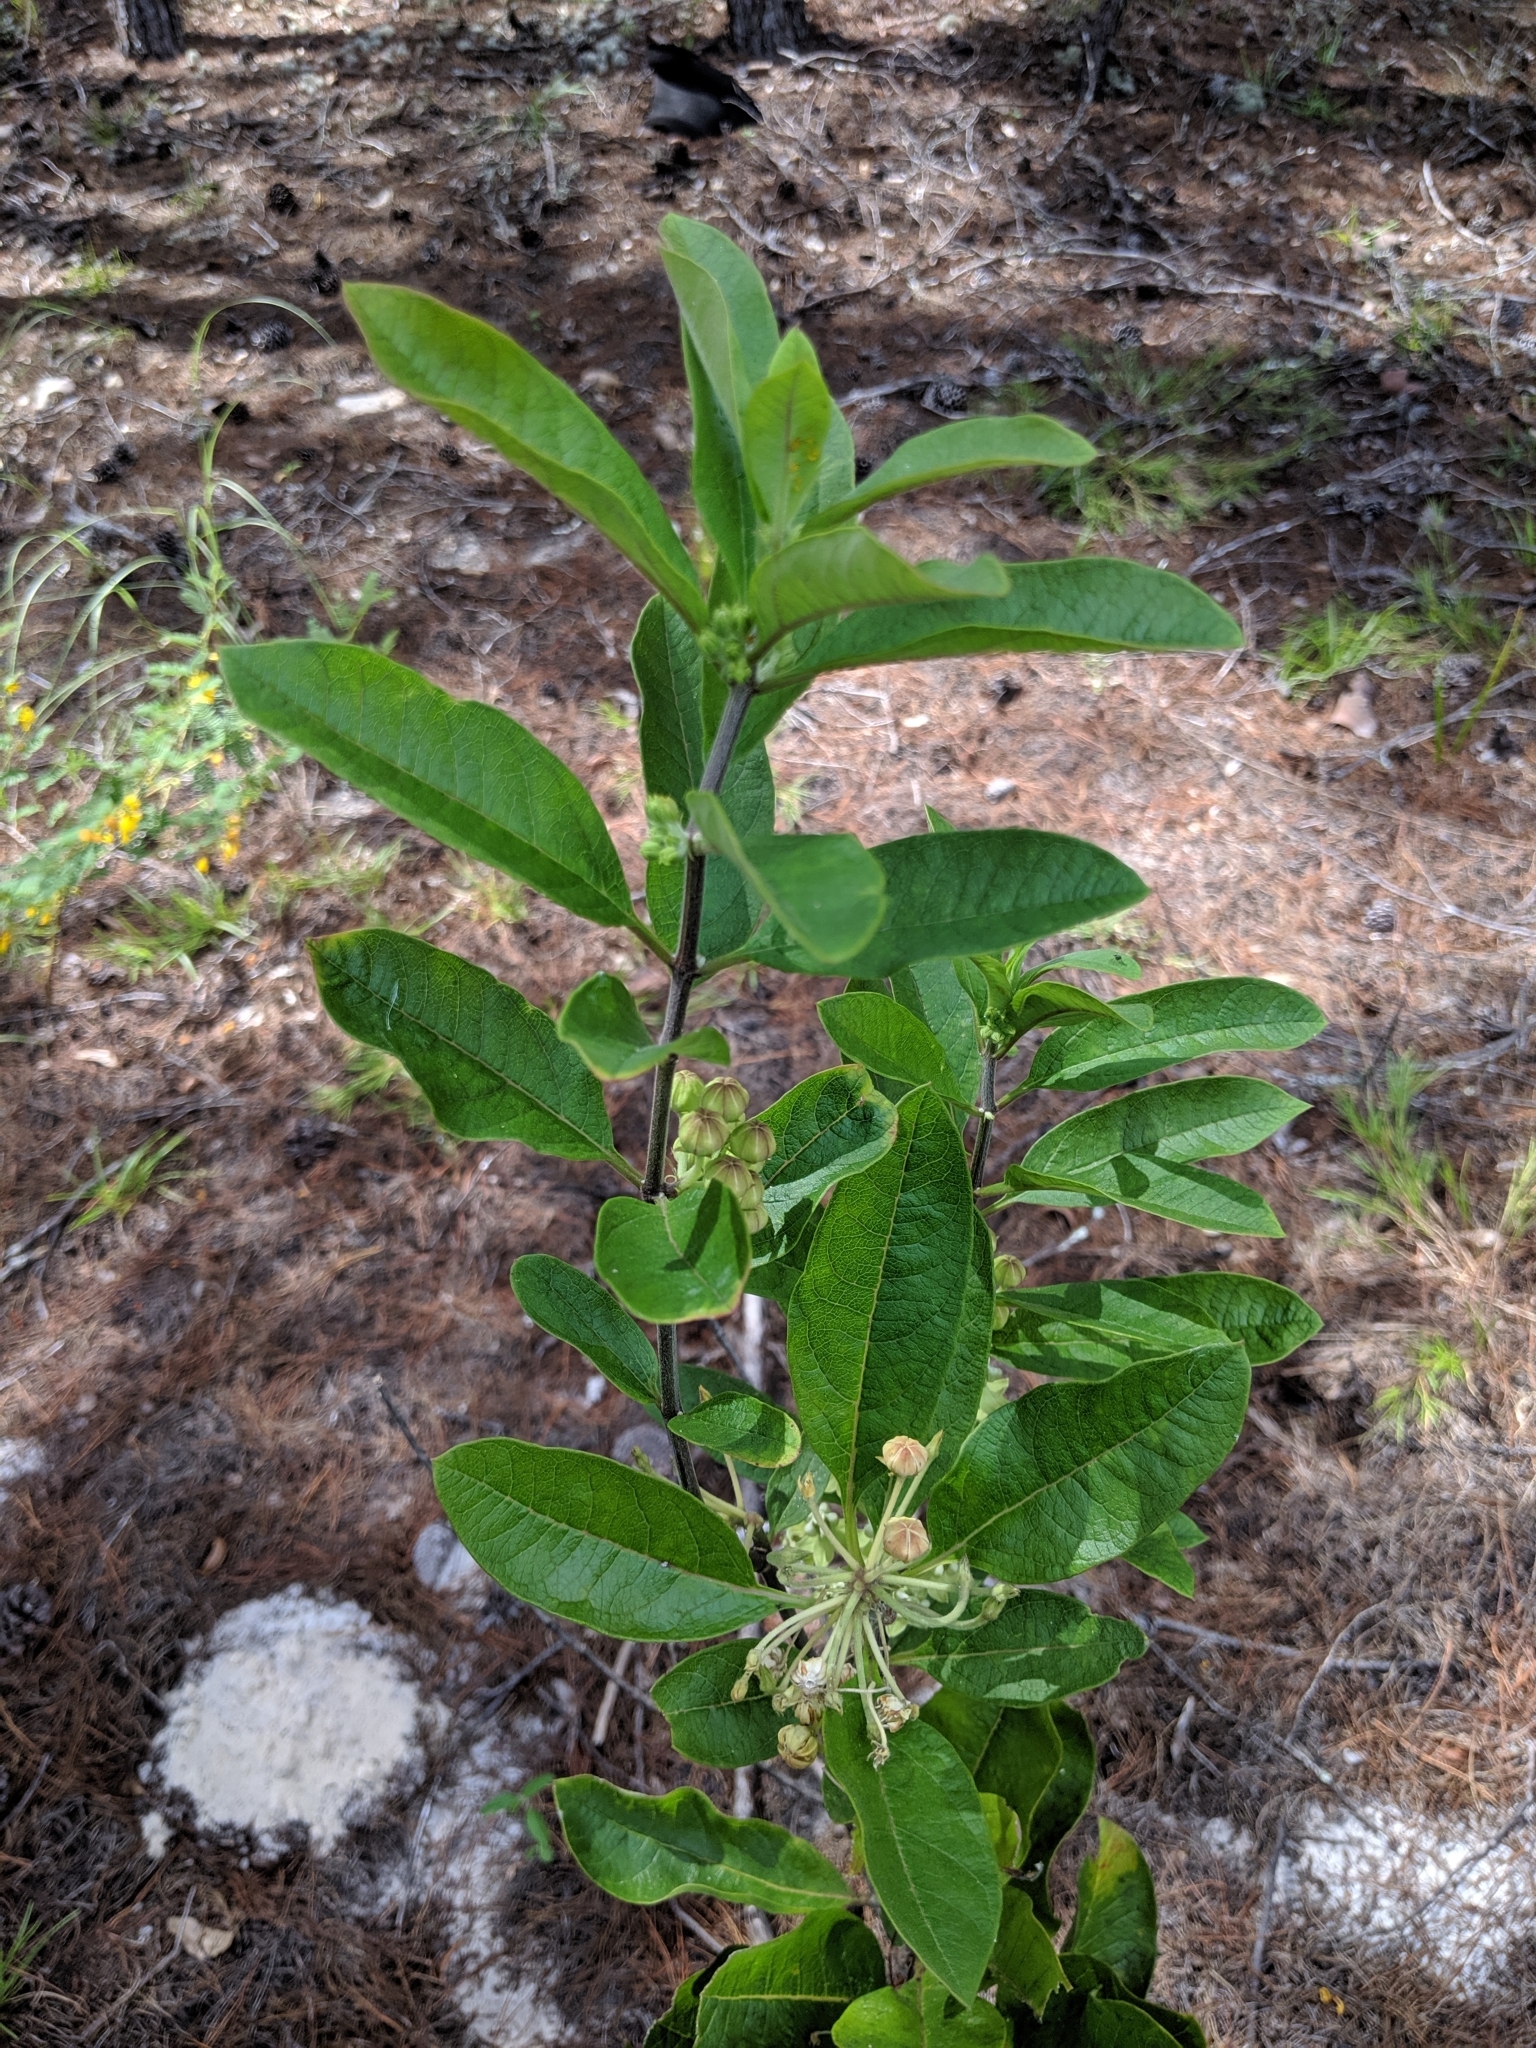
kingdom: Plantae
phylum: Tracheophyta
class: Magnoliopsida
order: Gentianales
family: Apocynaceae
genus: Asclepias
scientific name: Asclepias tomentosa
